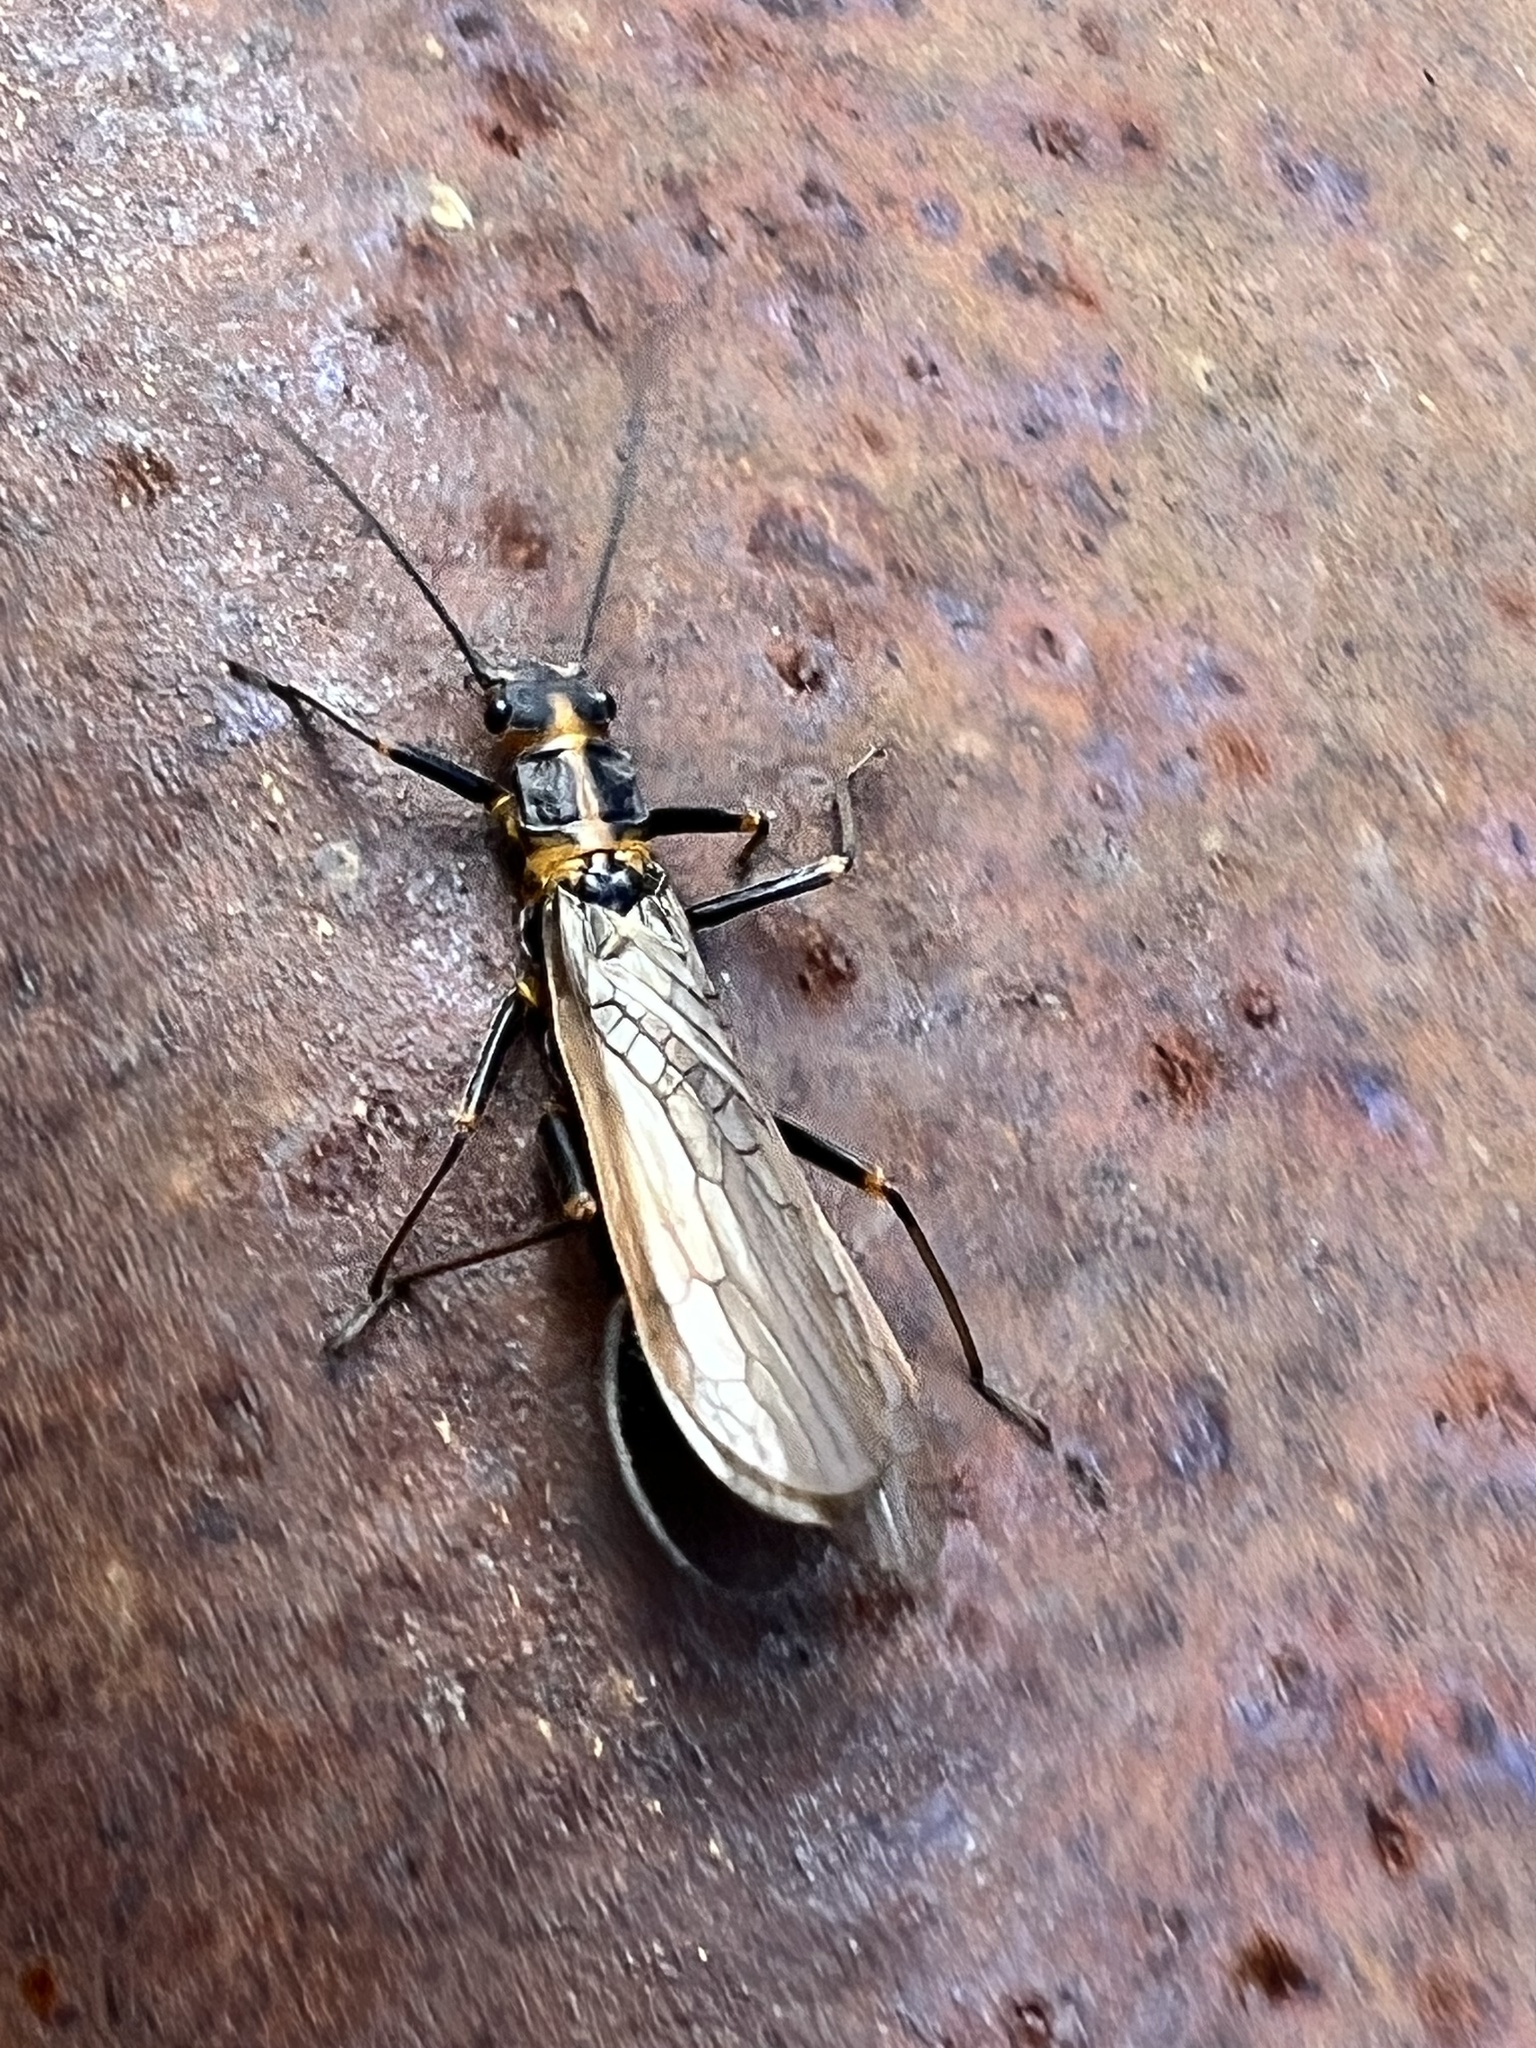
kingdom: Animalia
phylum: Arthropoda
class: Insecta
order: Plecoptera
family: Perlodidae
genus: Skwala
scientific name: Skwala americana
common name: American springfly
